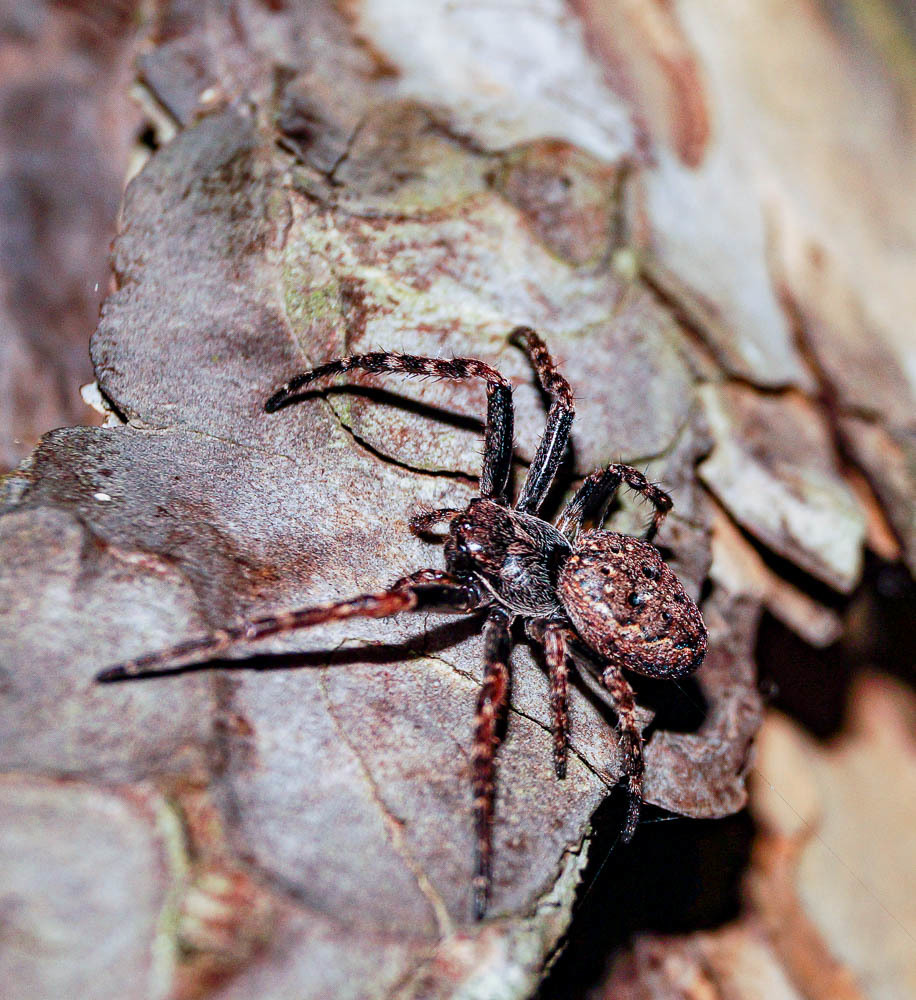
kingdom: Animalia
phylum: Arthropoda
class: Arachnida
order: Araneae
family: Araneidae
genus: Nuctenea
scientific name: Nuctenea umbratica
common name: Toad spider
